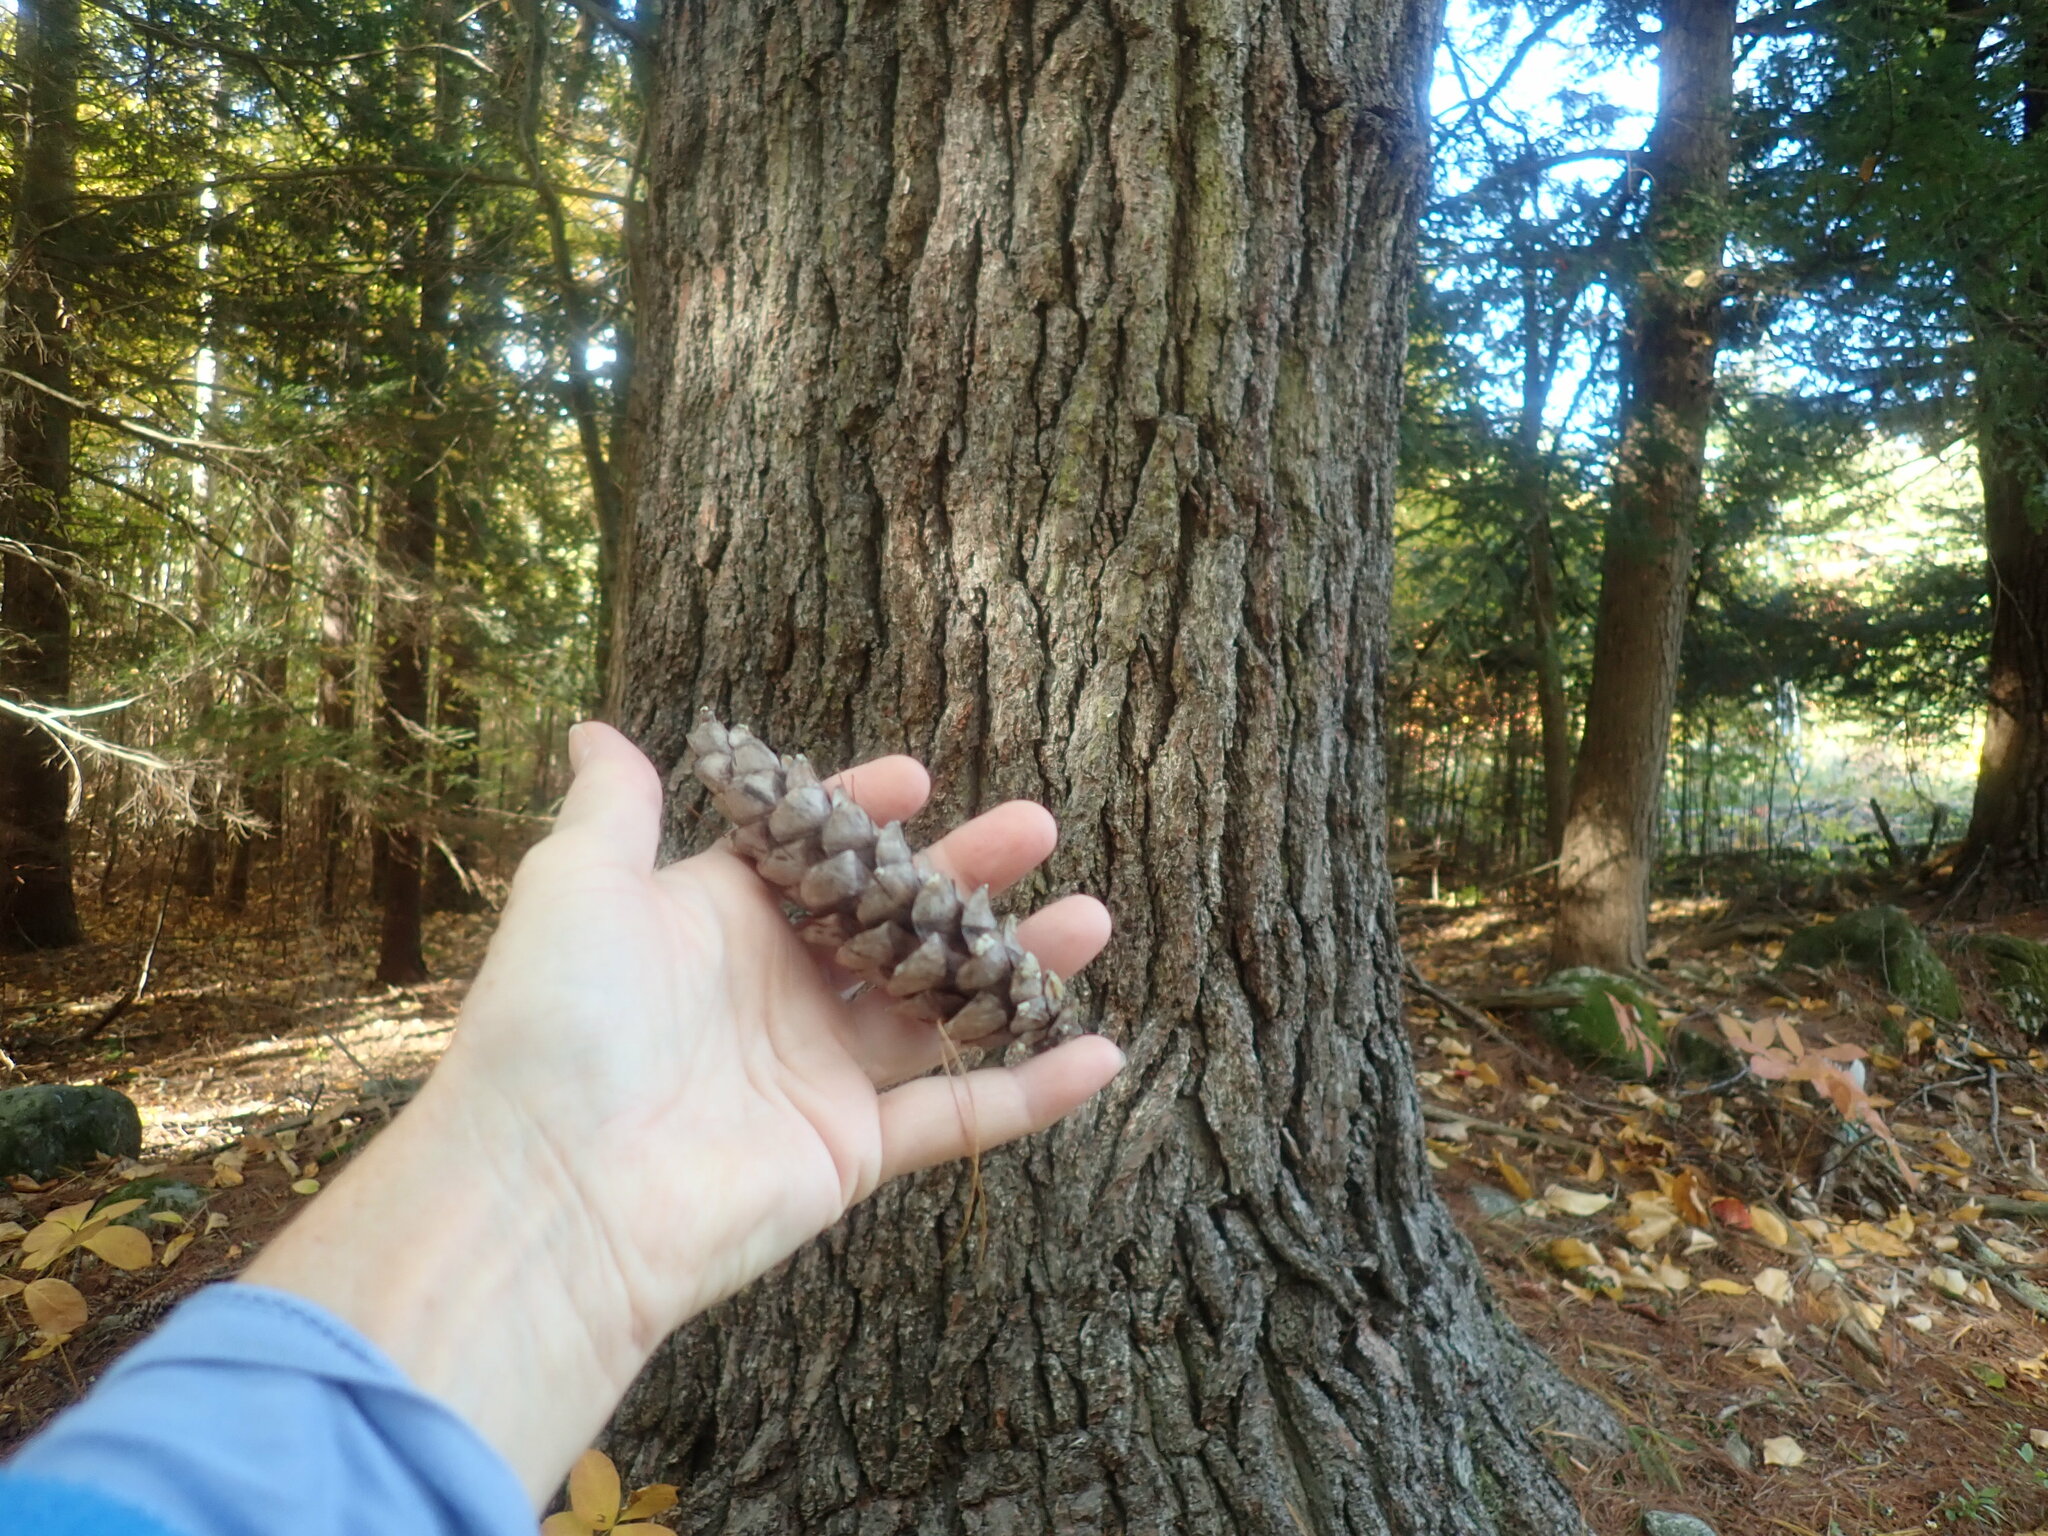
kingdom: Plantae
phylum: Tracheophyta
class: Pinopsida
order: Pinales
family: Pinaceae
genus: Pinus
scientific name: Pinus strobus
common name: Weymouth pine
